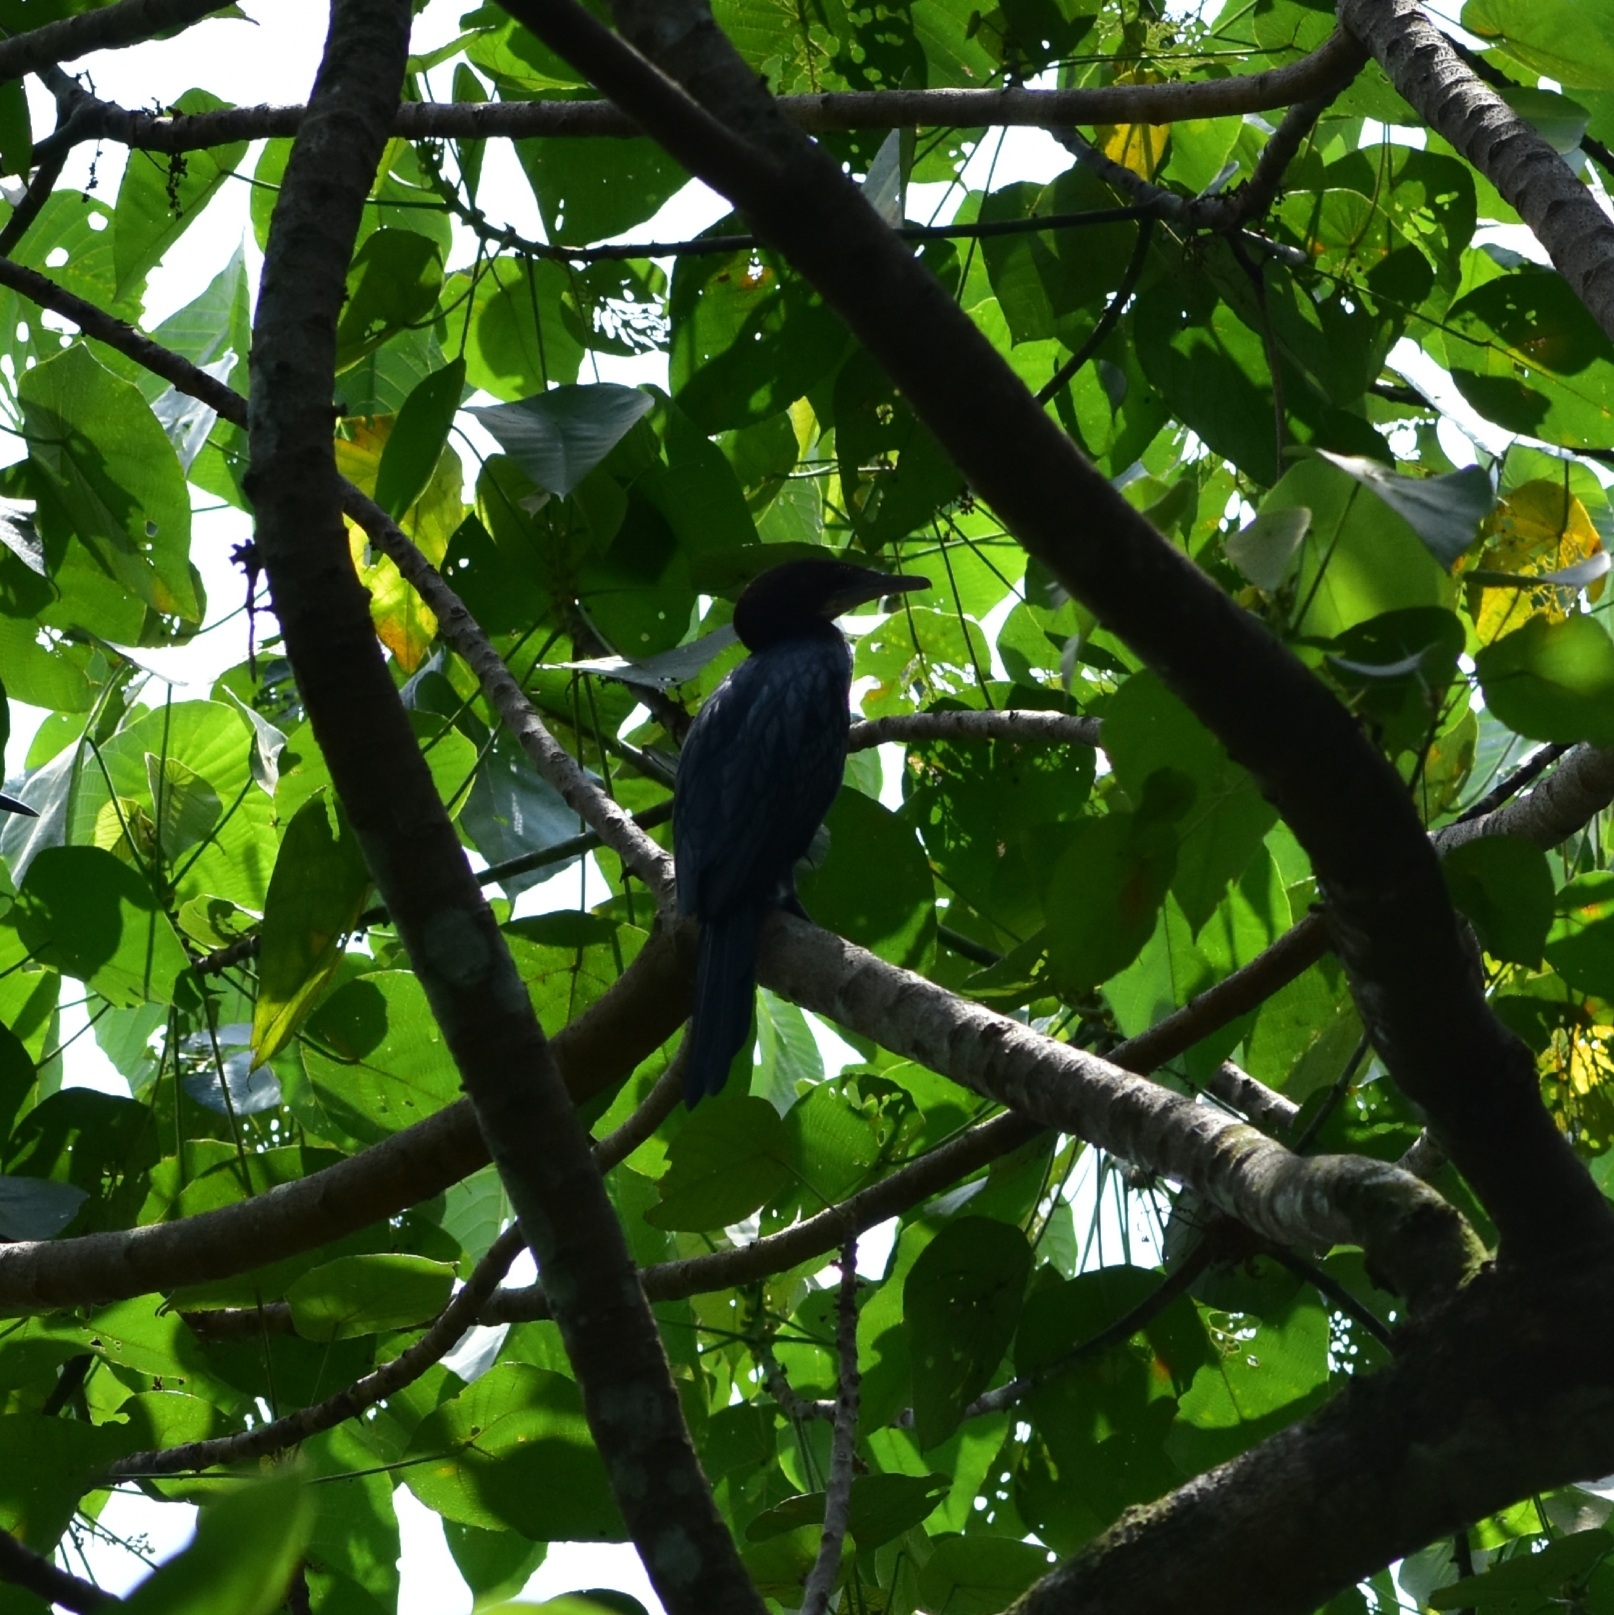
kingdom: Animalia
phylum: Chordata
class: Aves
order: Suliformes
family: Phalacrocoracidae
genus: Microcarbo
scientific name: Microcarbo niger
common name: Little cormorant
